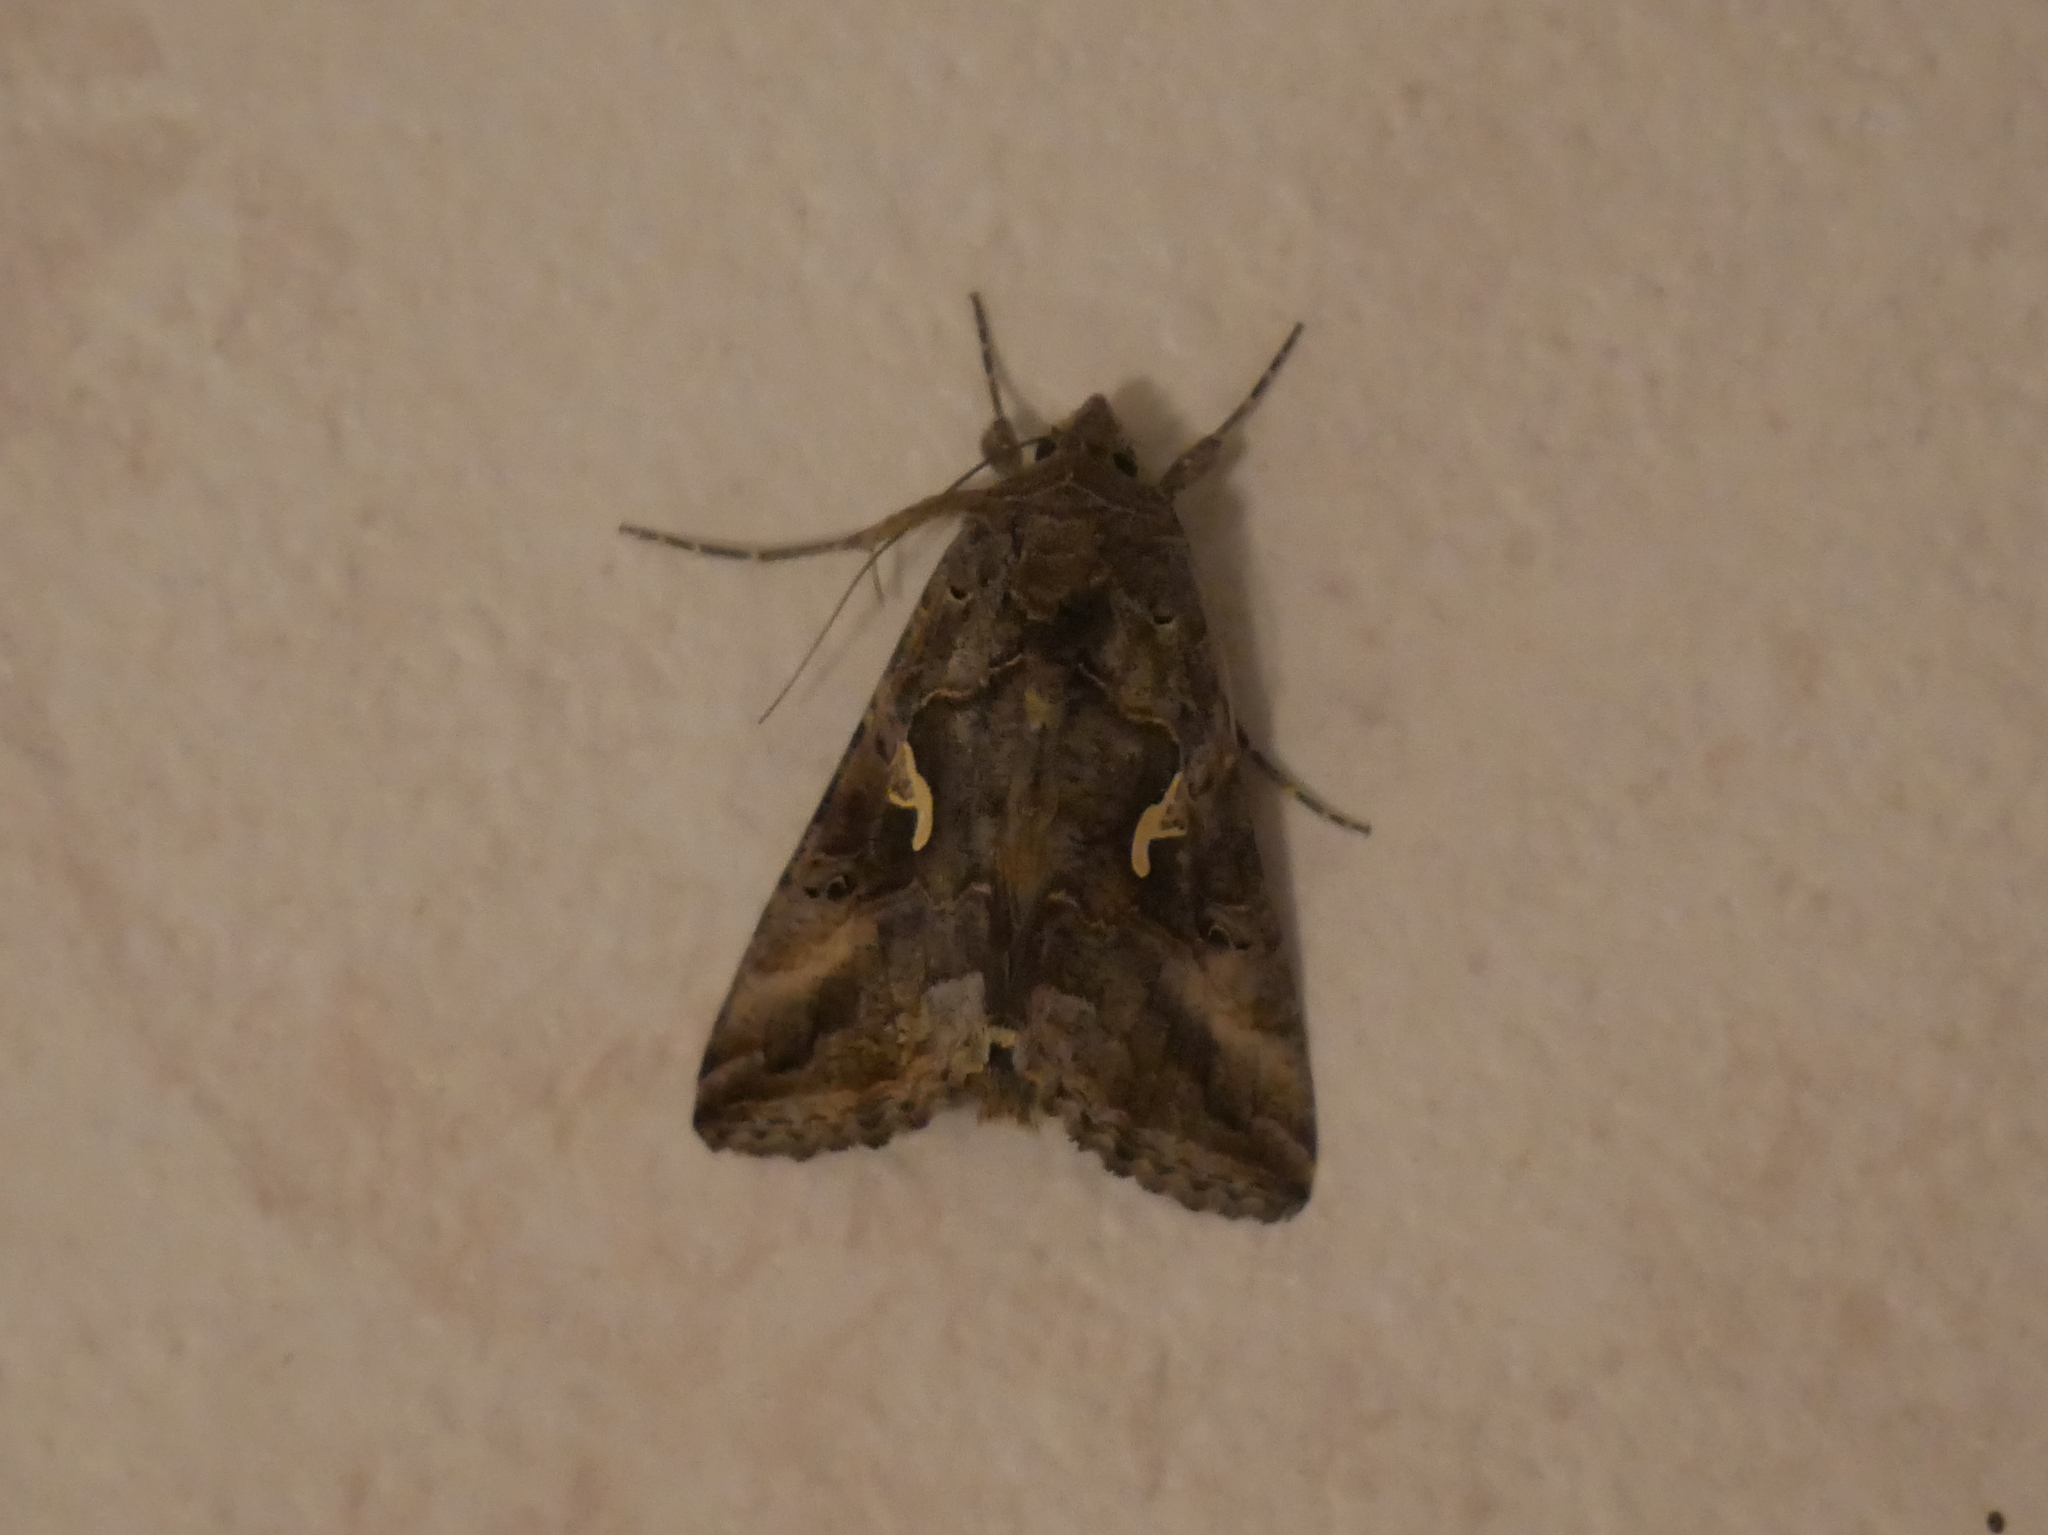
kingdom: Animalia
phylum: Arthropoda
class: Insecta
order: Lepidoptera
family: Noctuidae
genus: Autographa
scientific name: Autographa gamma
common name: Silver y
